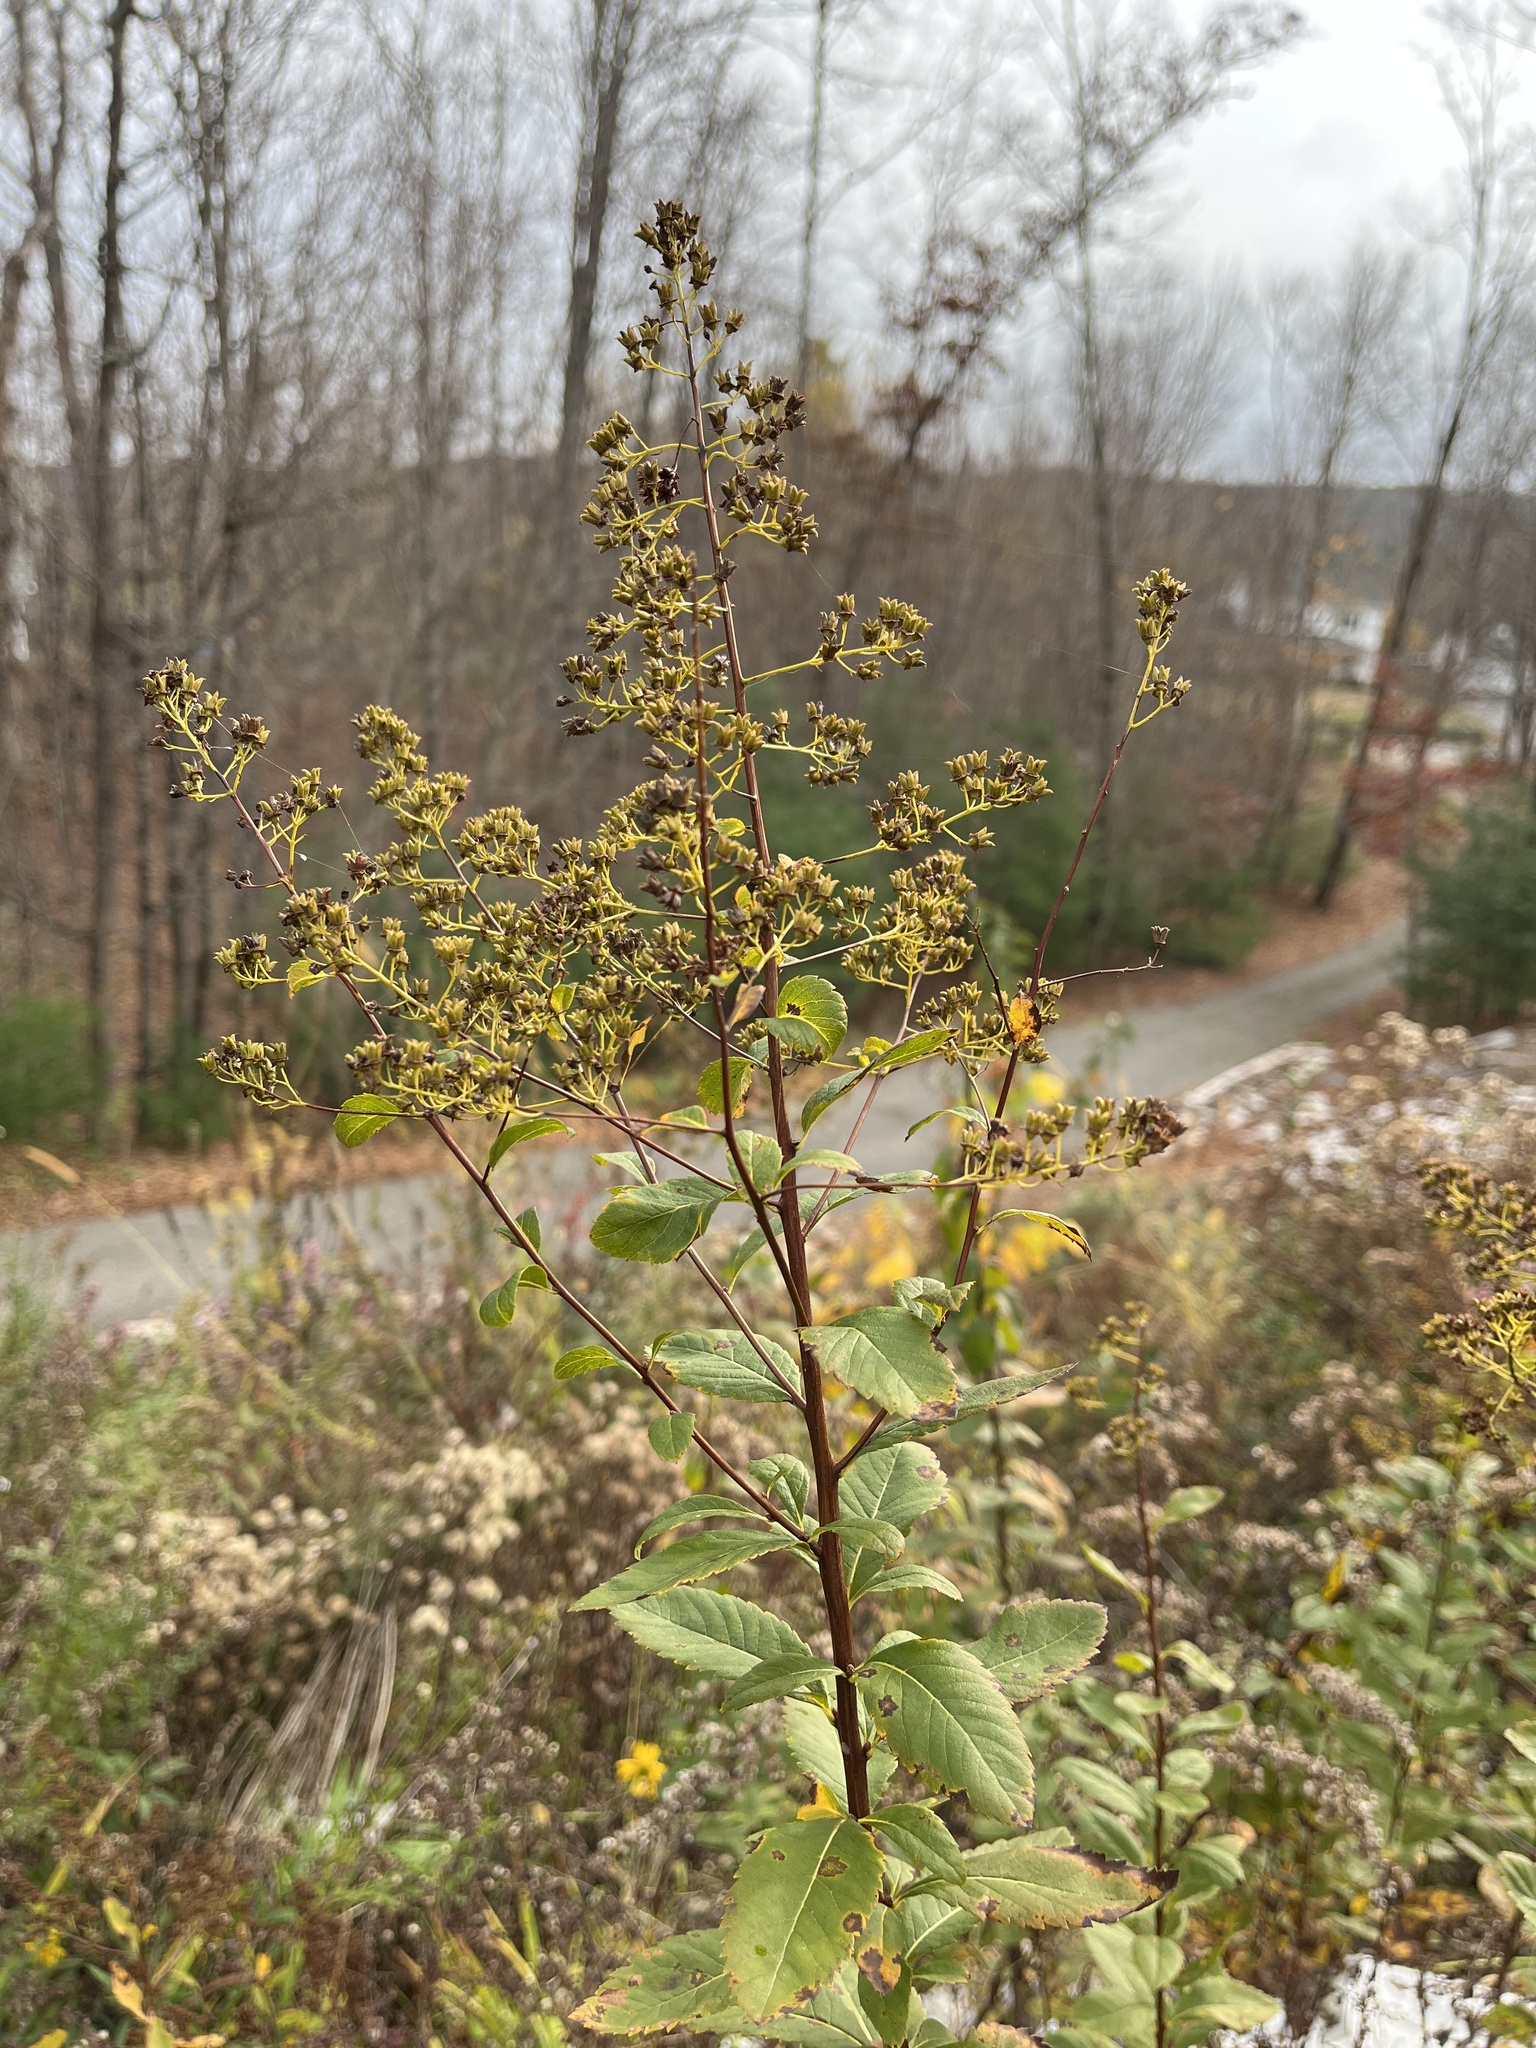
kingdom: Plantae
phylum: Tracheophyta
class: Magnoliopsida
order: Rosales
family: Rosaceae
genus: Spiraea
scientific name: Spiraea alba
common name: Pale bridewort
